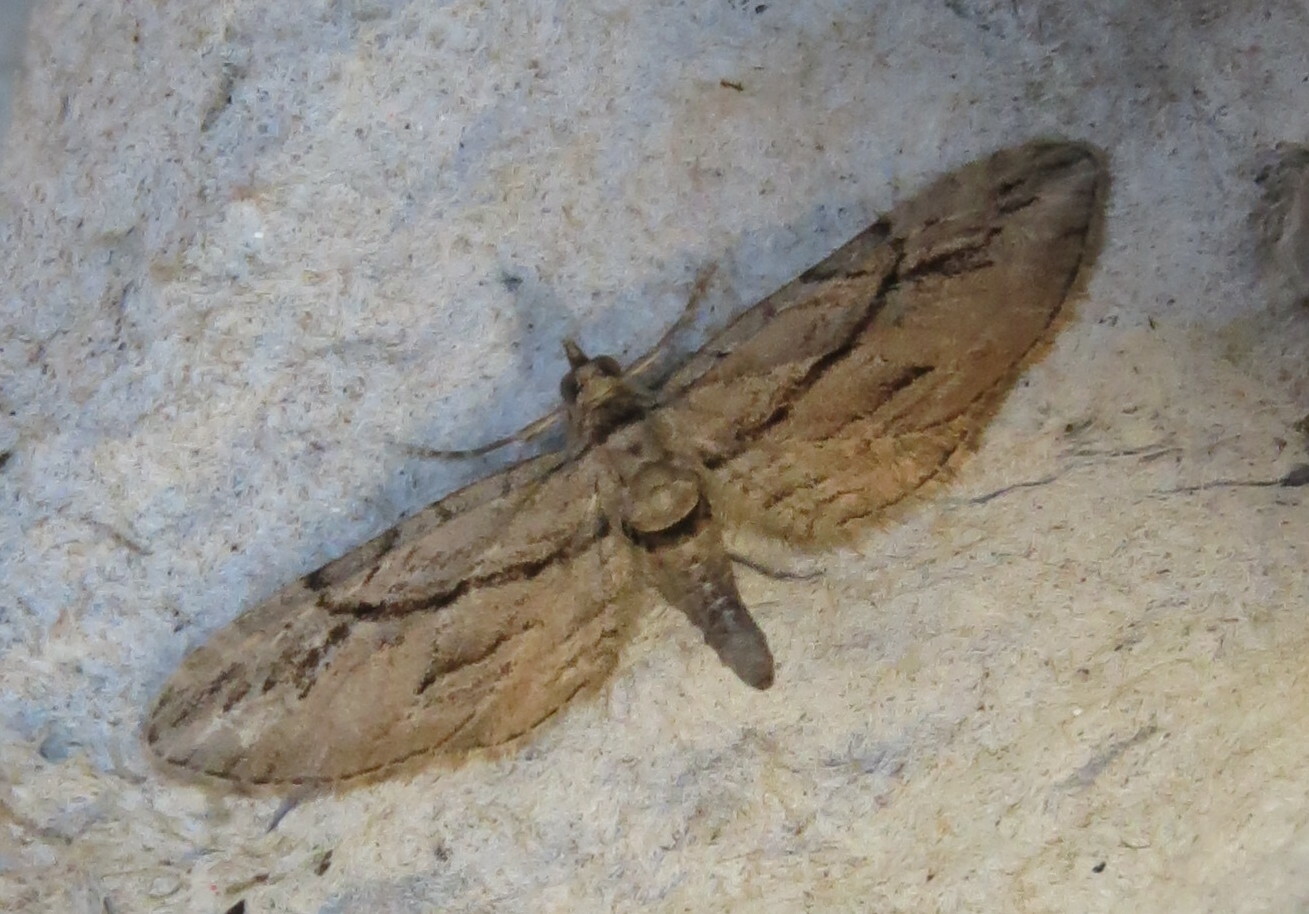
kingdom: Animalia
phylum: Arthropoda
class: Insecta
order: Lepidoptera
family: Geometridae
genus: Eupithecia
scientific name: Eupithecia phoeniceata
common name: Cypress pug
